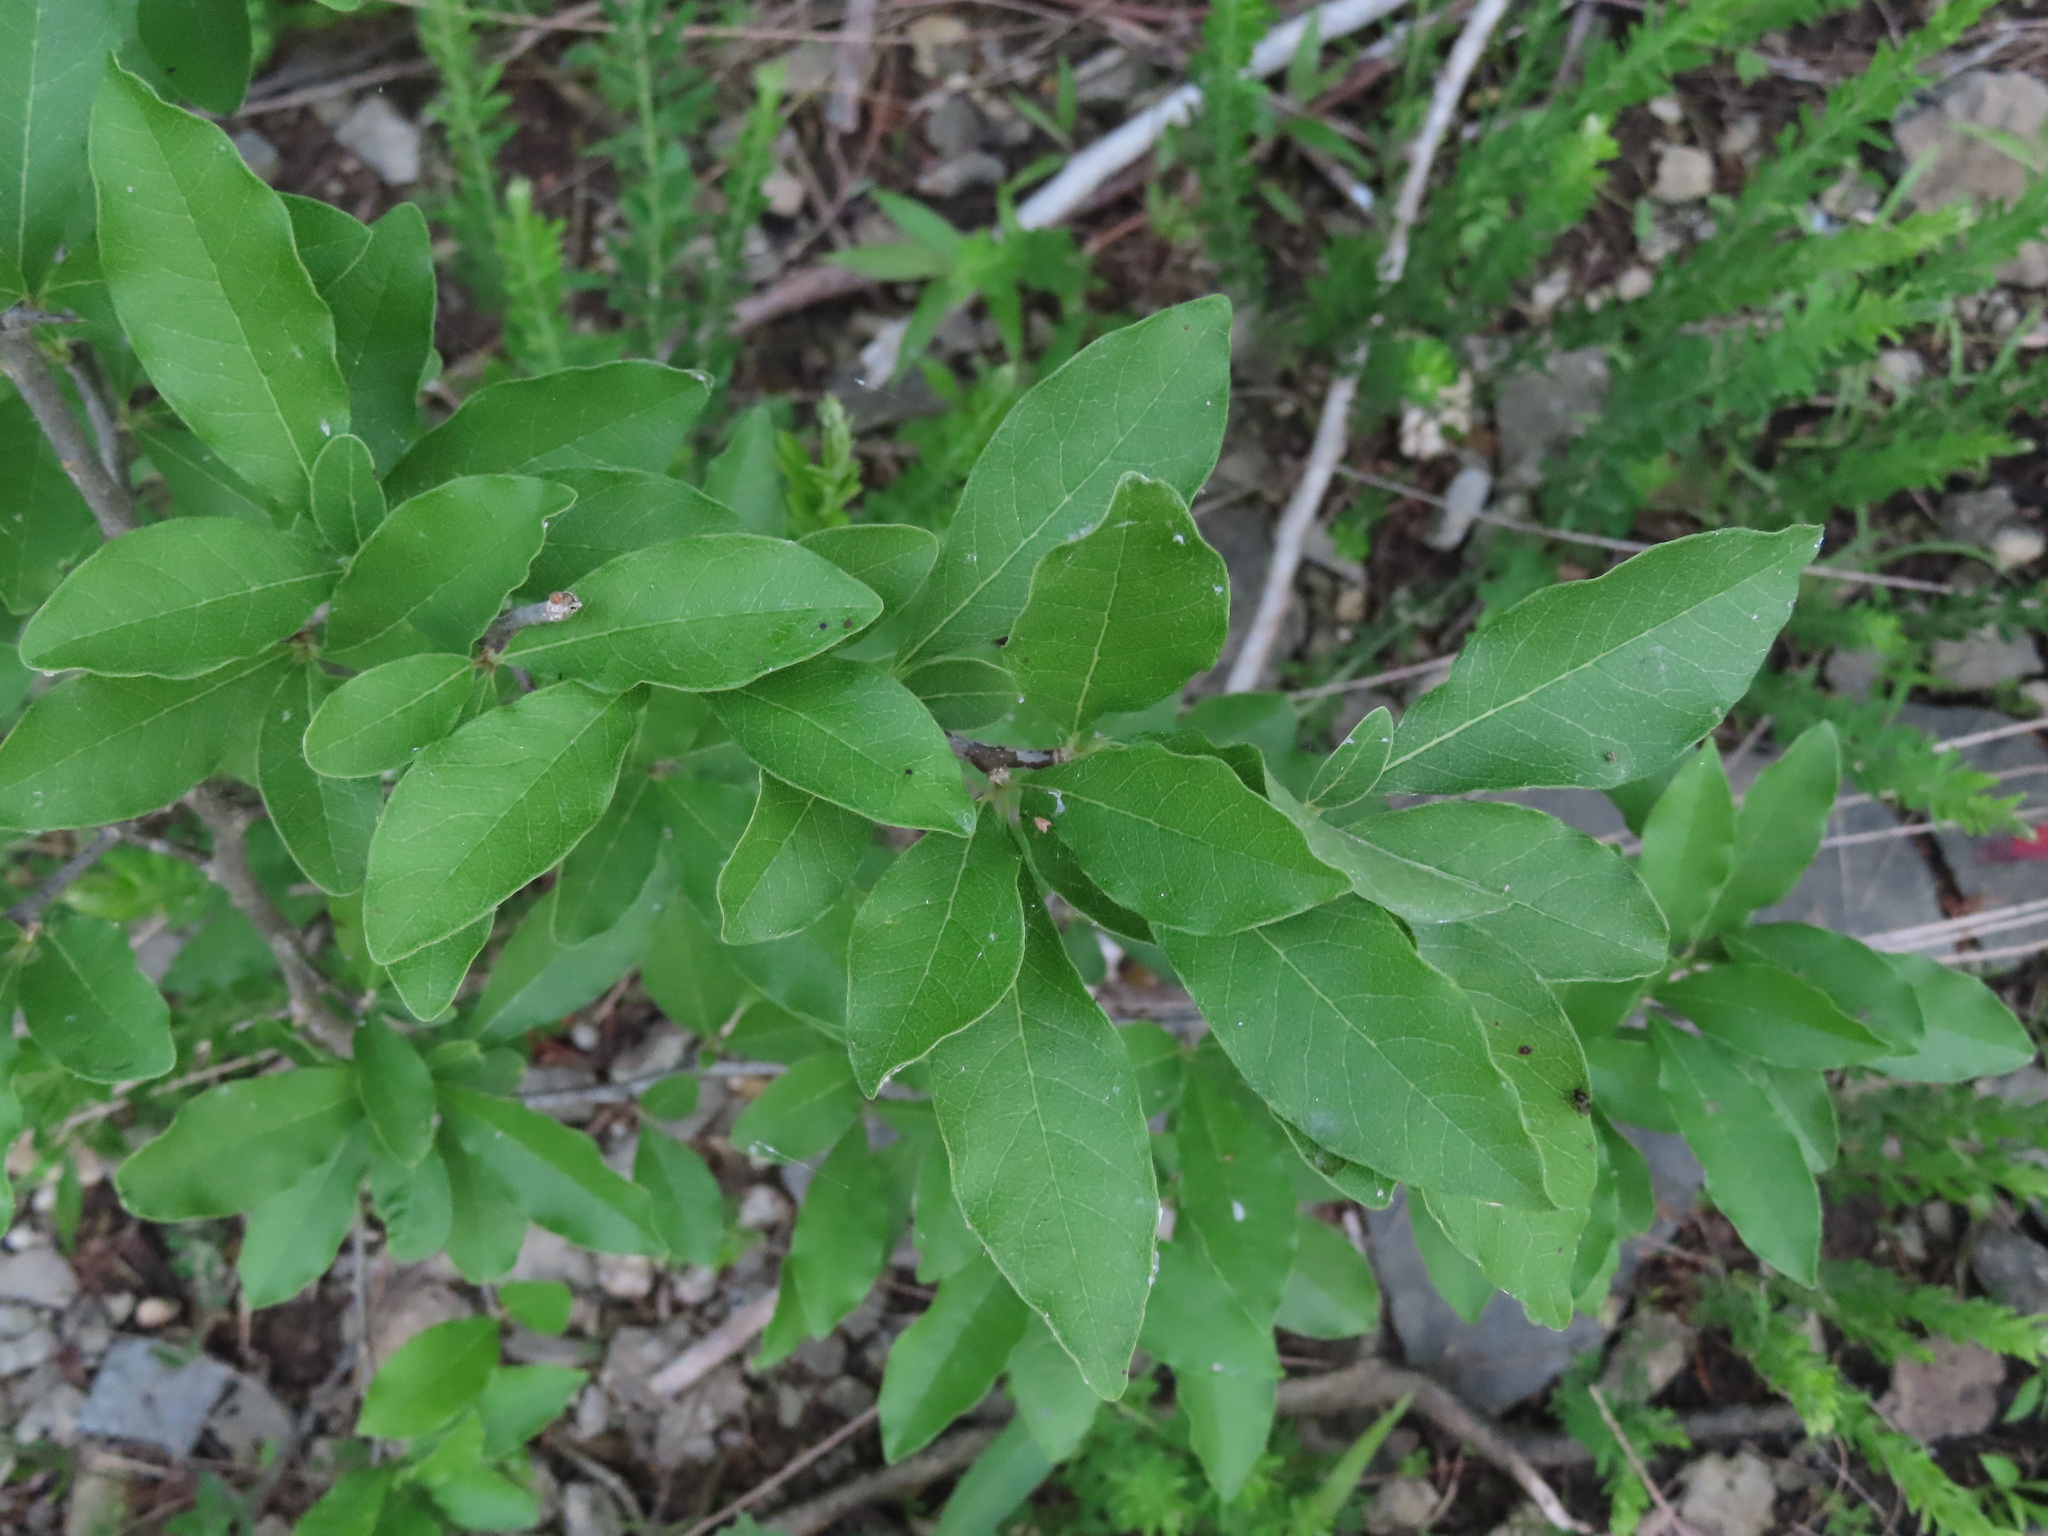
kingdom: Plantae
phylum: Tracheophyta
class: Magnoliopsida
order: Ericales
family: Sapotaceae
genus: Sideroxylon
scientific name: Sideroxylon lycioides
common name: Buckthorn bumelia
